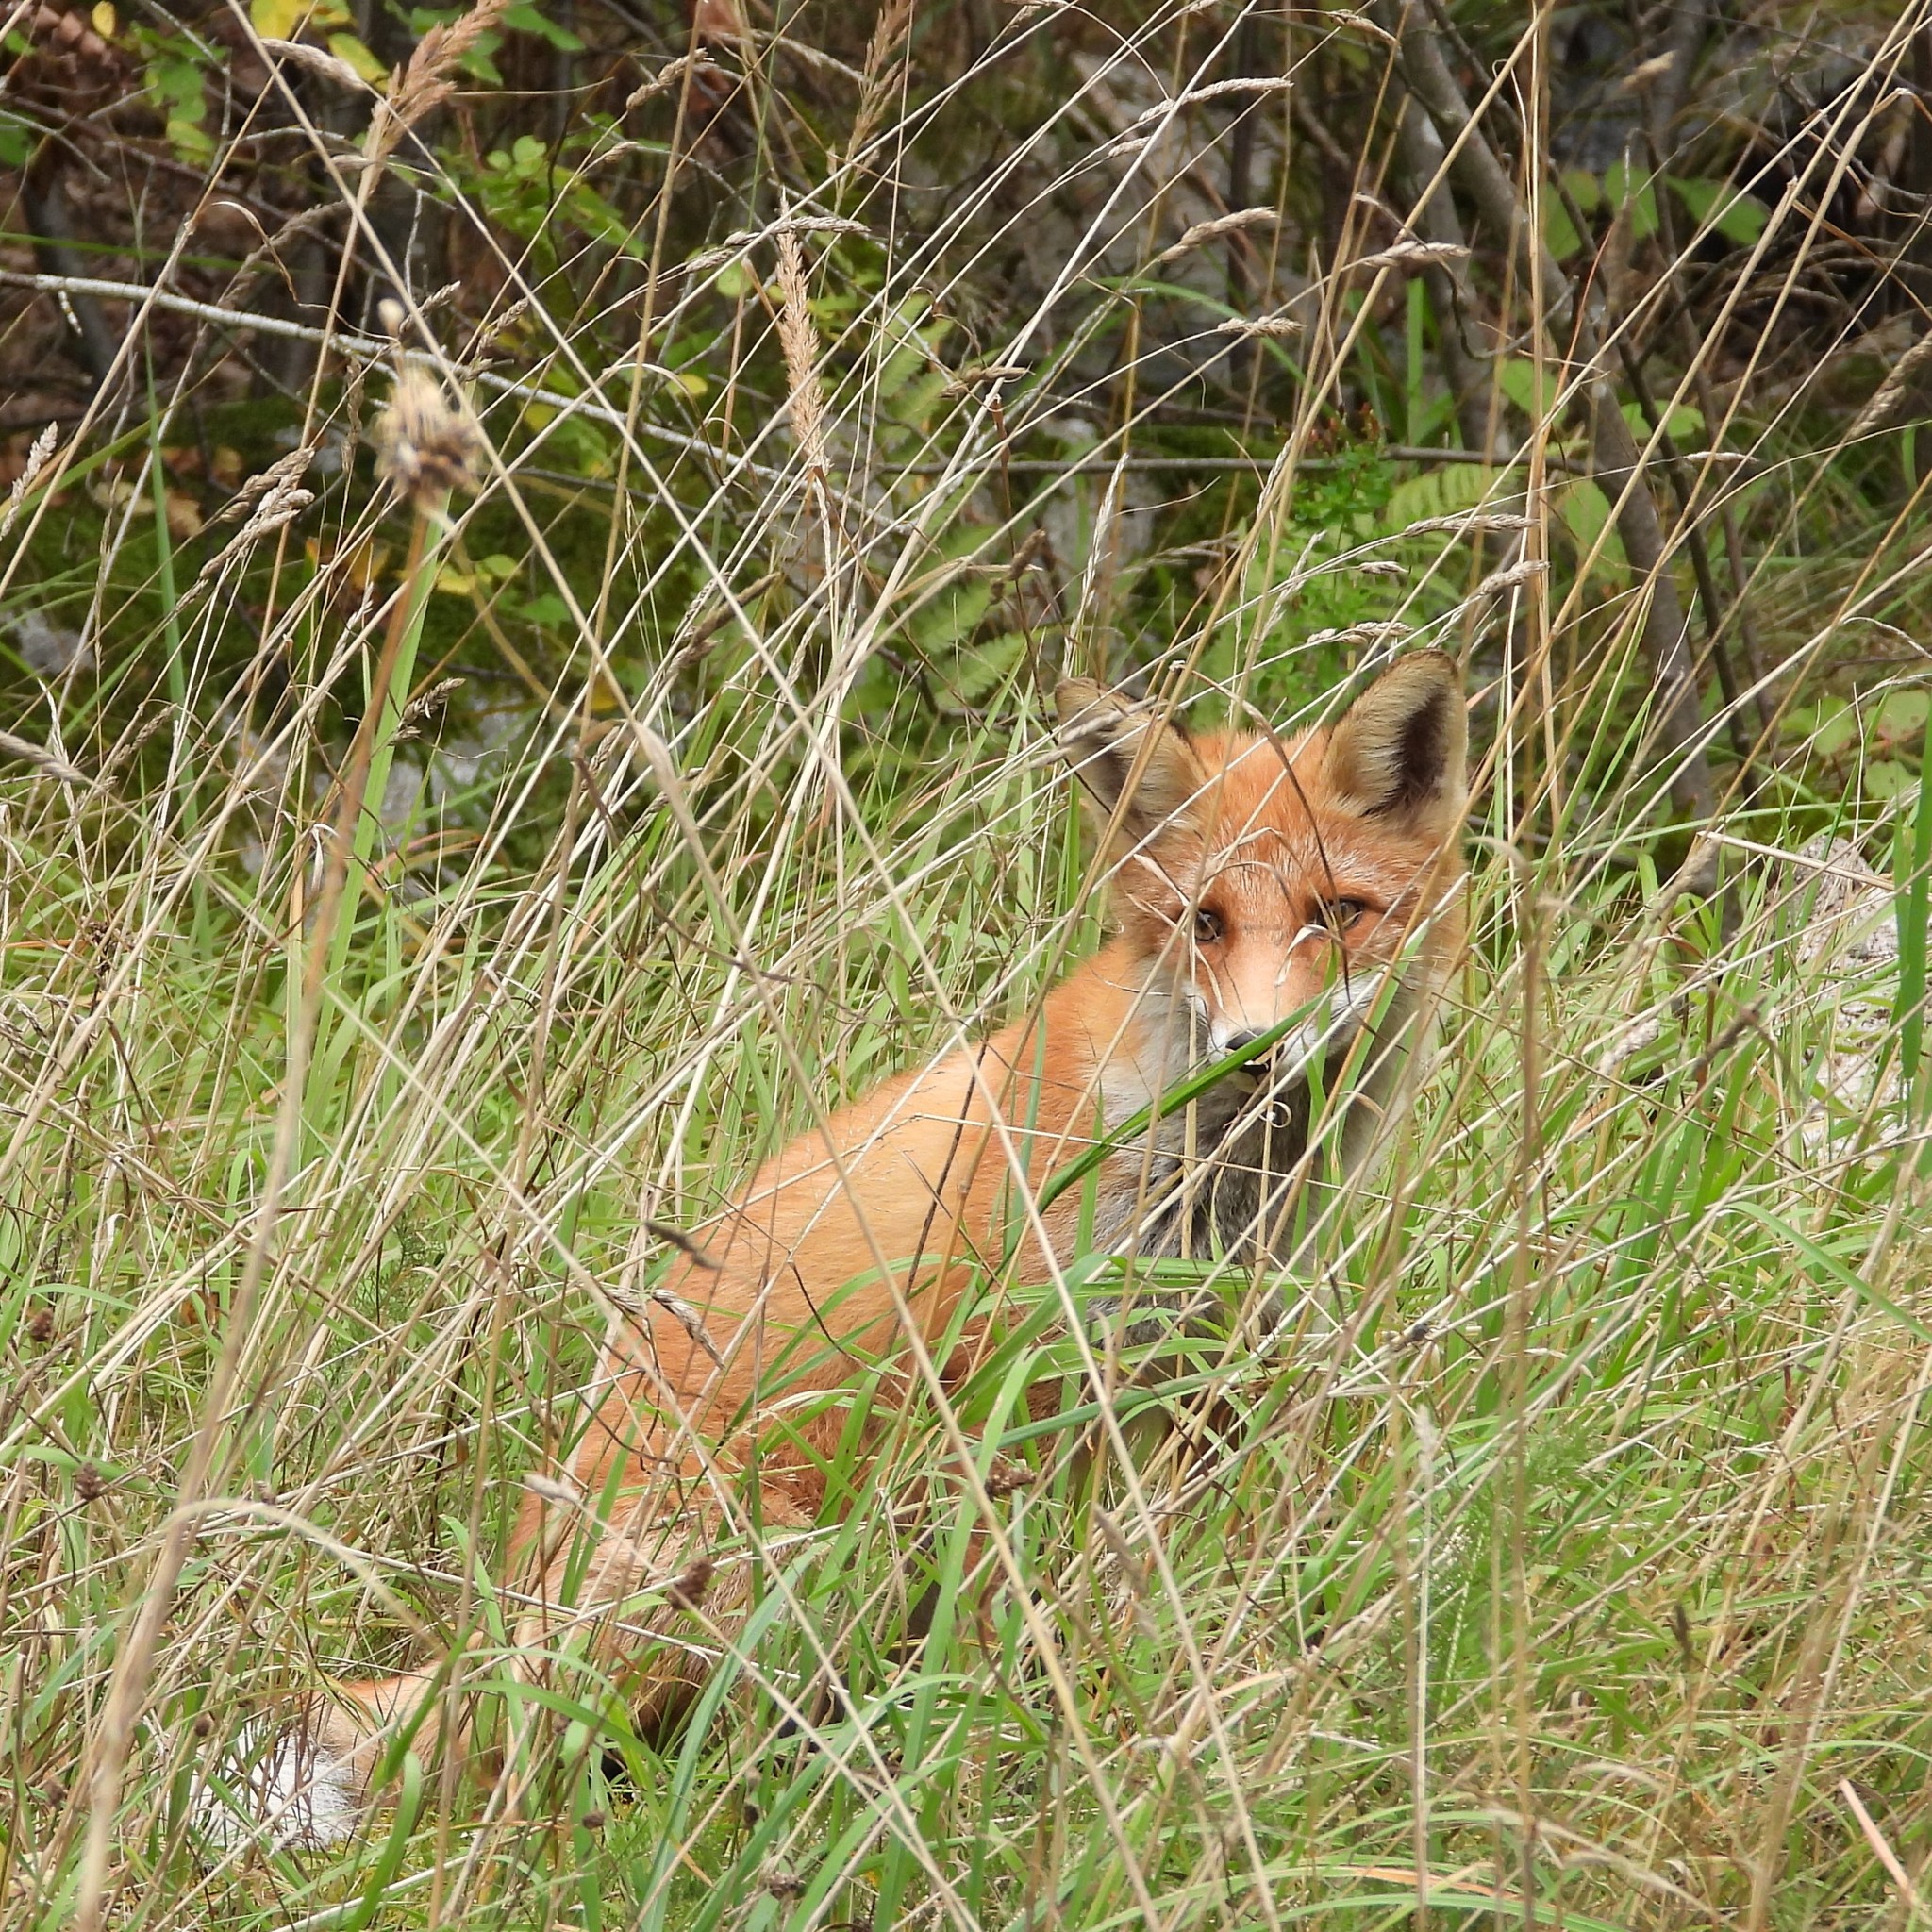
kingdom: Animalia
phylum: Chordata
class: Mammalia
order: Carnivora
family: Canidae
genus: Vulpes
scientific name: Vulpes vulpes
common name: Red fox
